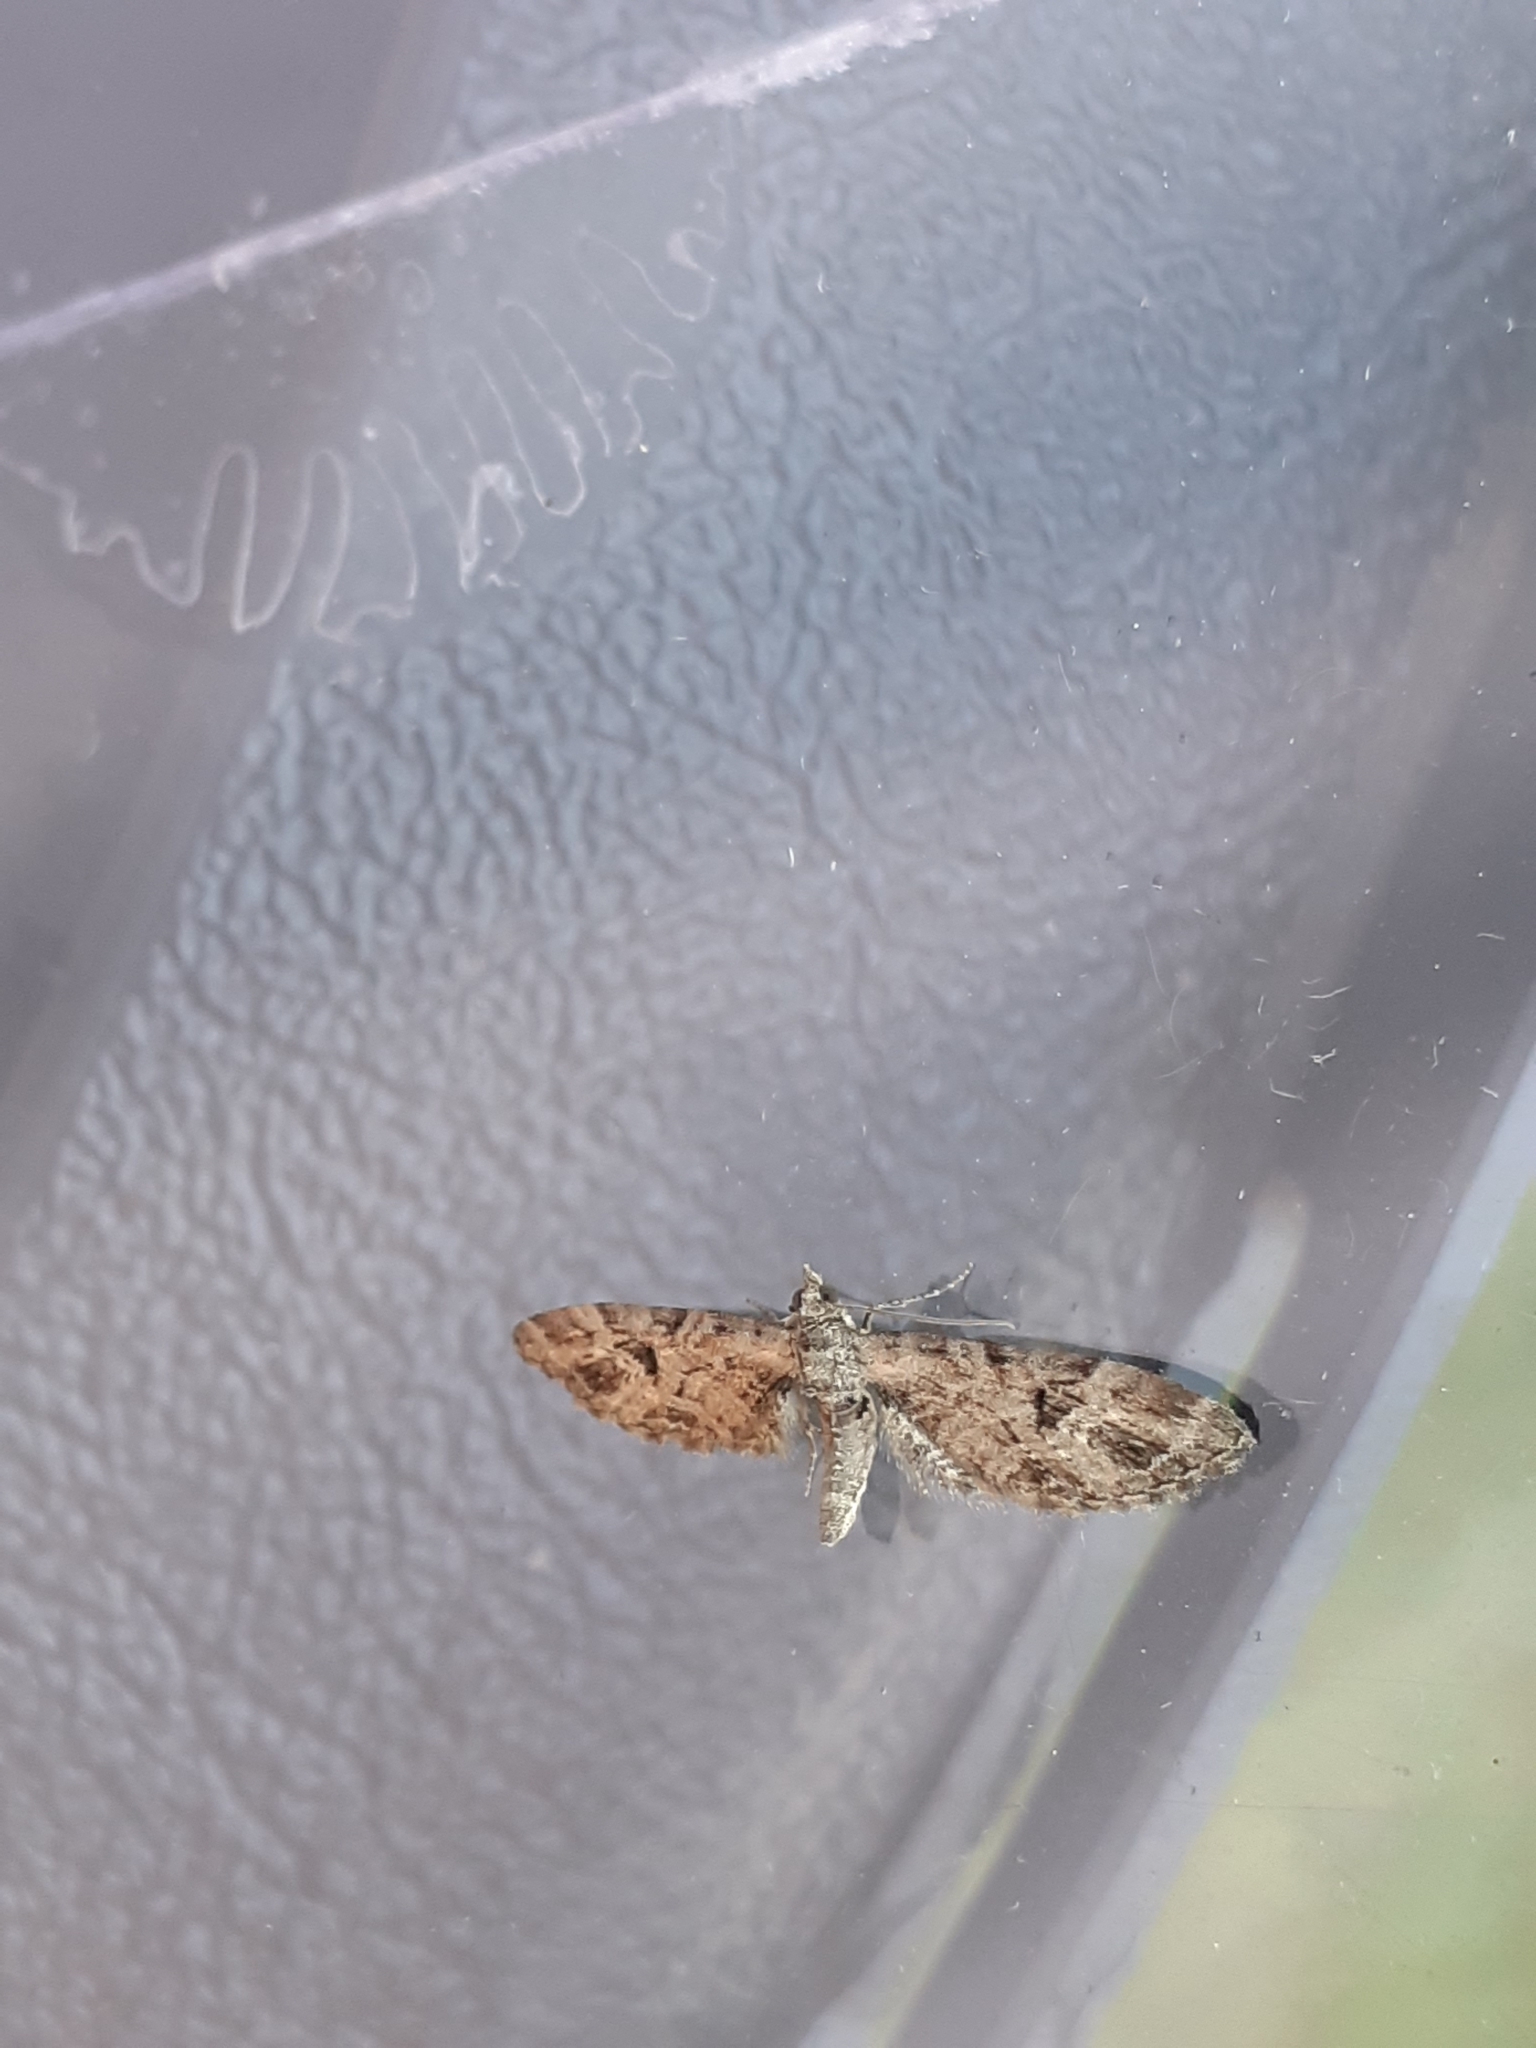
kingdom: Animalia
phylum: Arthropoda
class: Insecta
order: Lepidoptera
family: Geometridae
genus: Eupithecia
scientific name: Eupithecia exiguata
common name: Mottled pug
